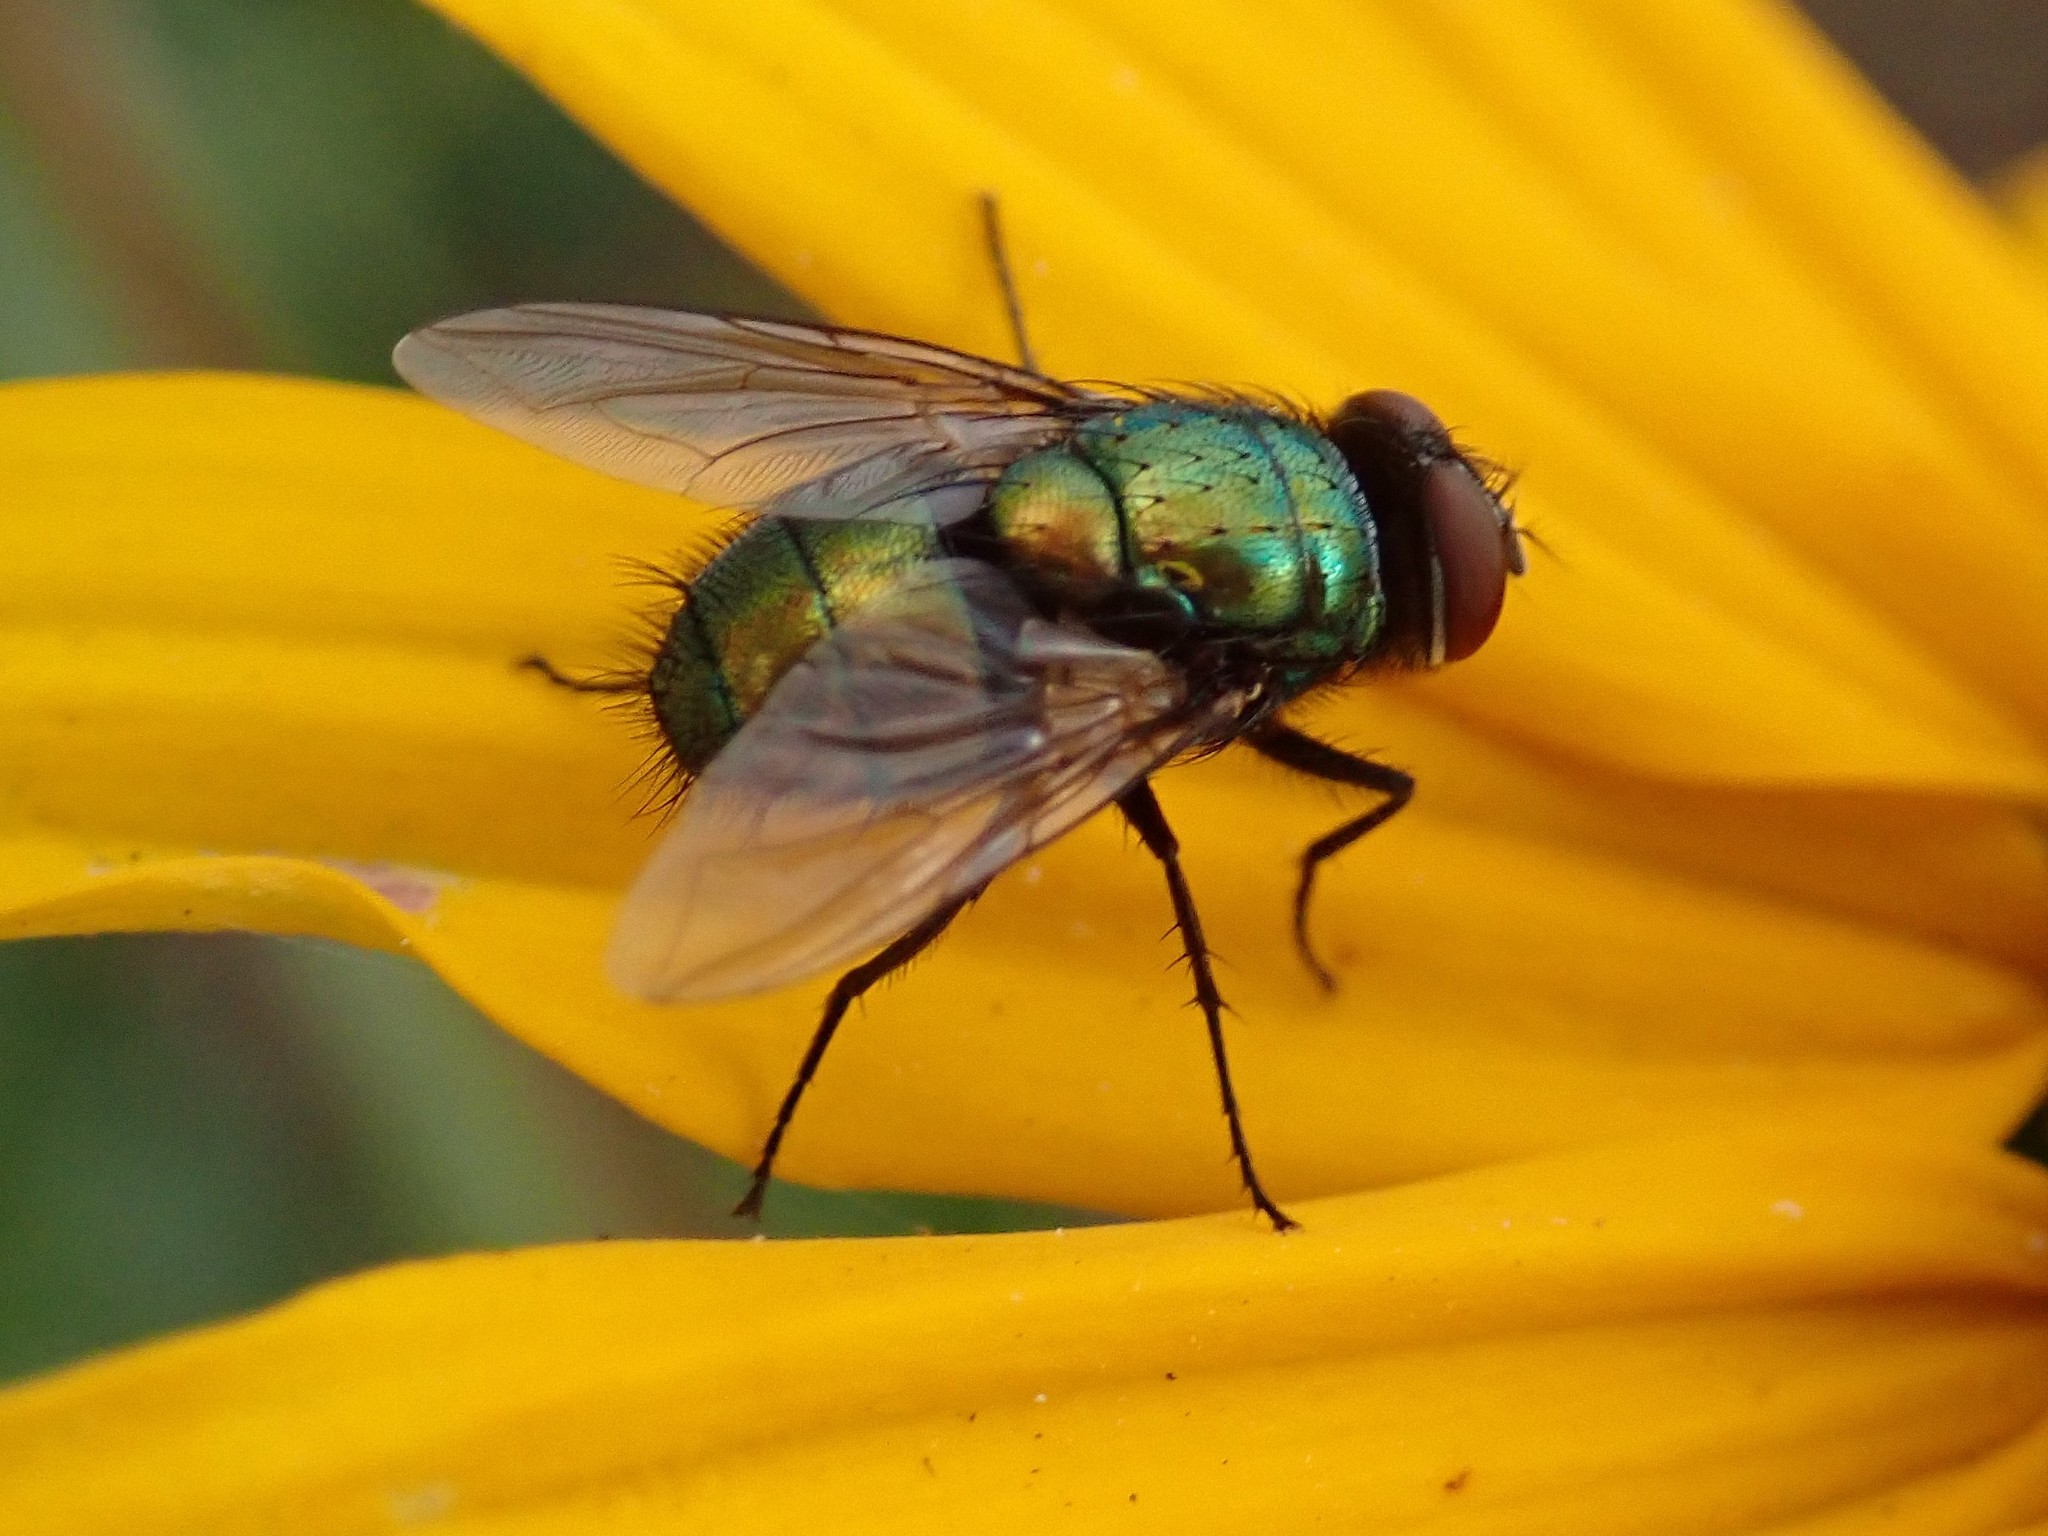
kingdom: Animalia
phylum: Arthropoda
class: Insecta
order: Diptera
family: Calliphoridae
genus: Lucilia
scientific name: Lucilia sericata
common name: Blow fly
